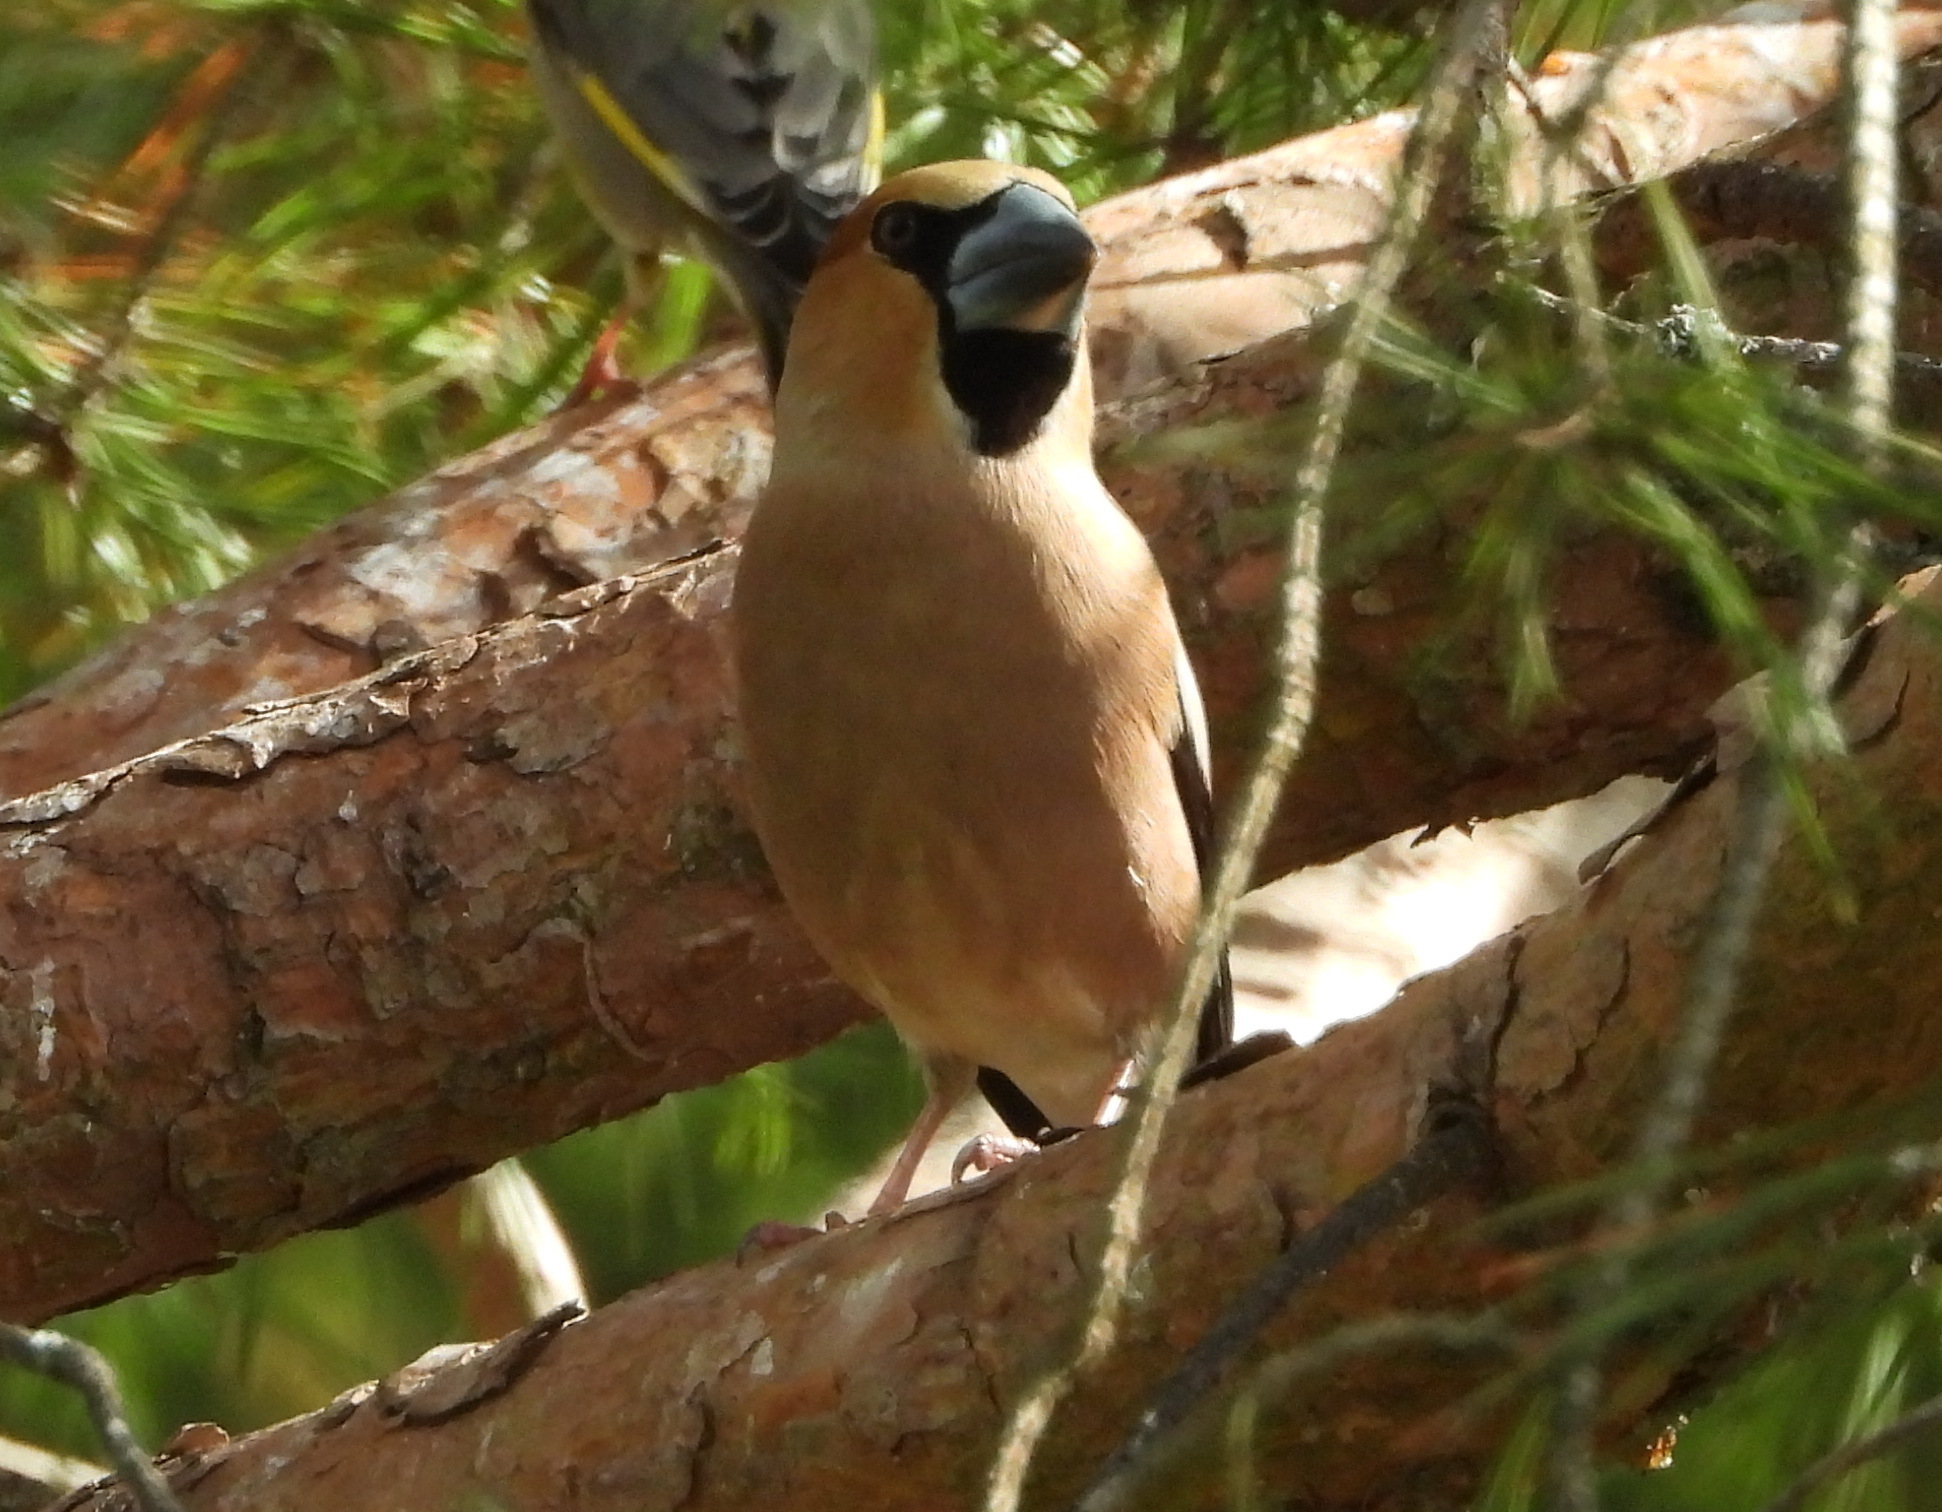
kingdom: Animalia
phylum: Chordata
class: Aves
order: Passeriformes
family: Fringillidae
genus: Coccothraustes
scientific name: Coccothraustes coccothraustes
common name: Hawfinch
